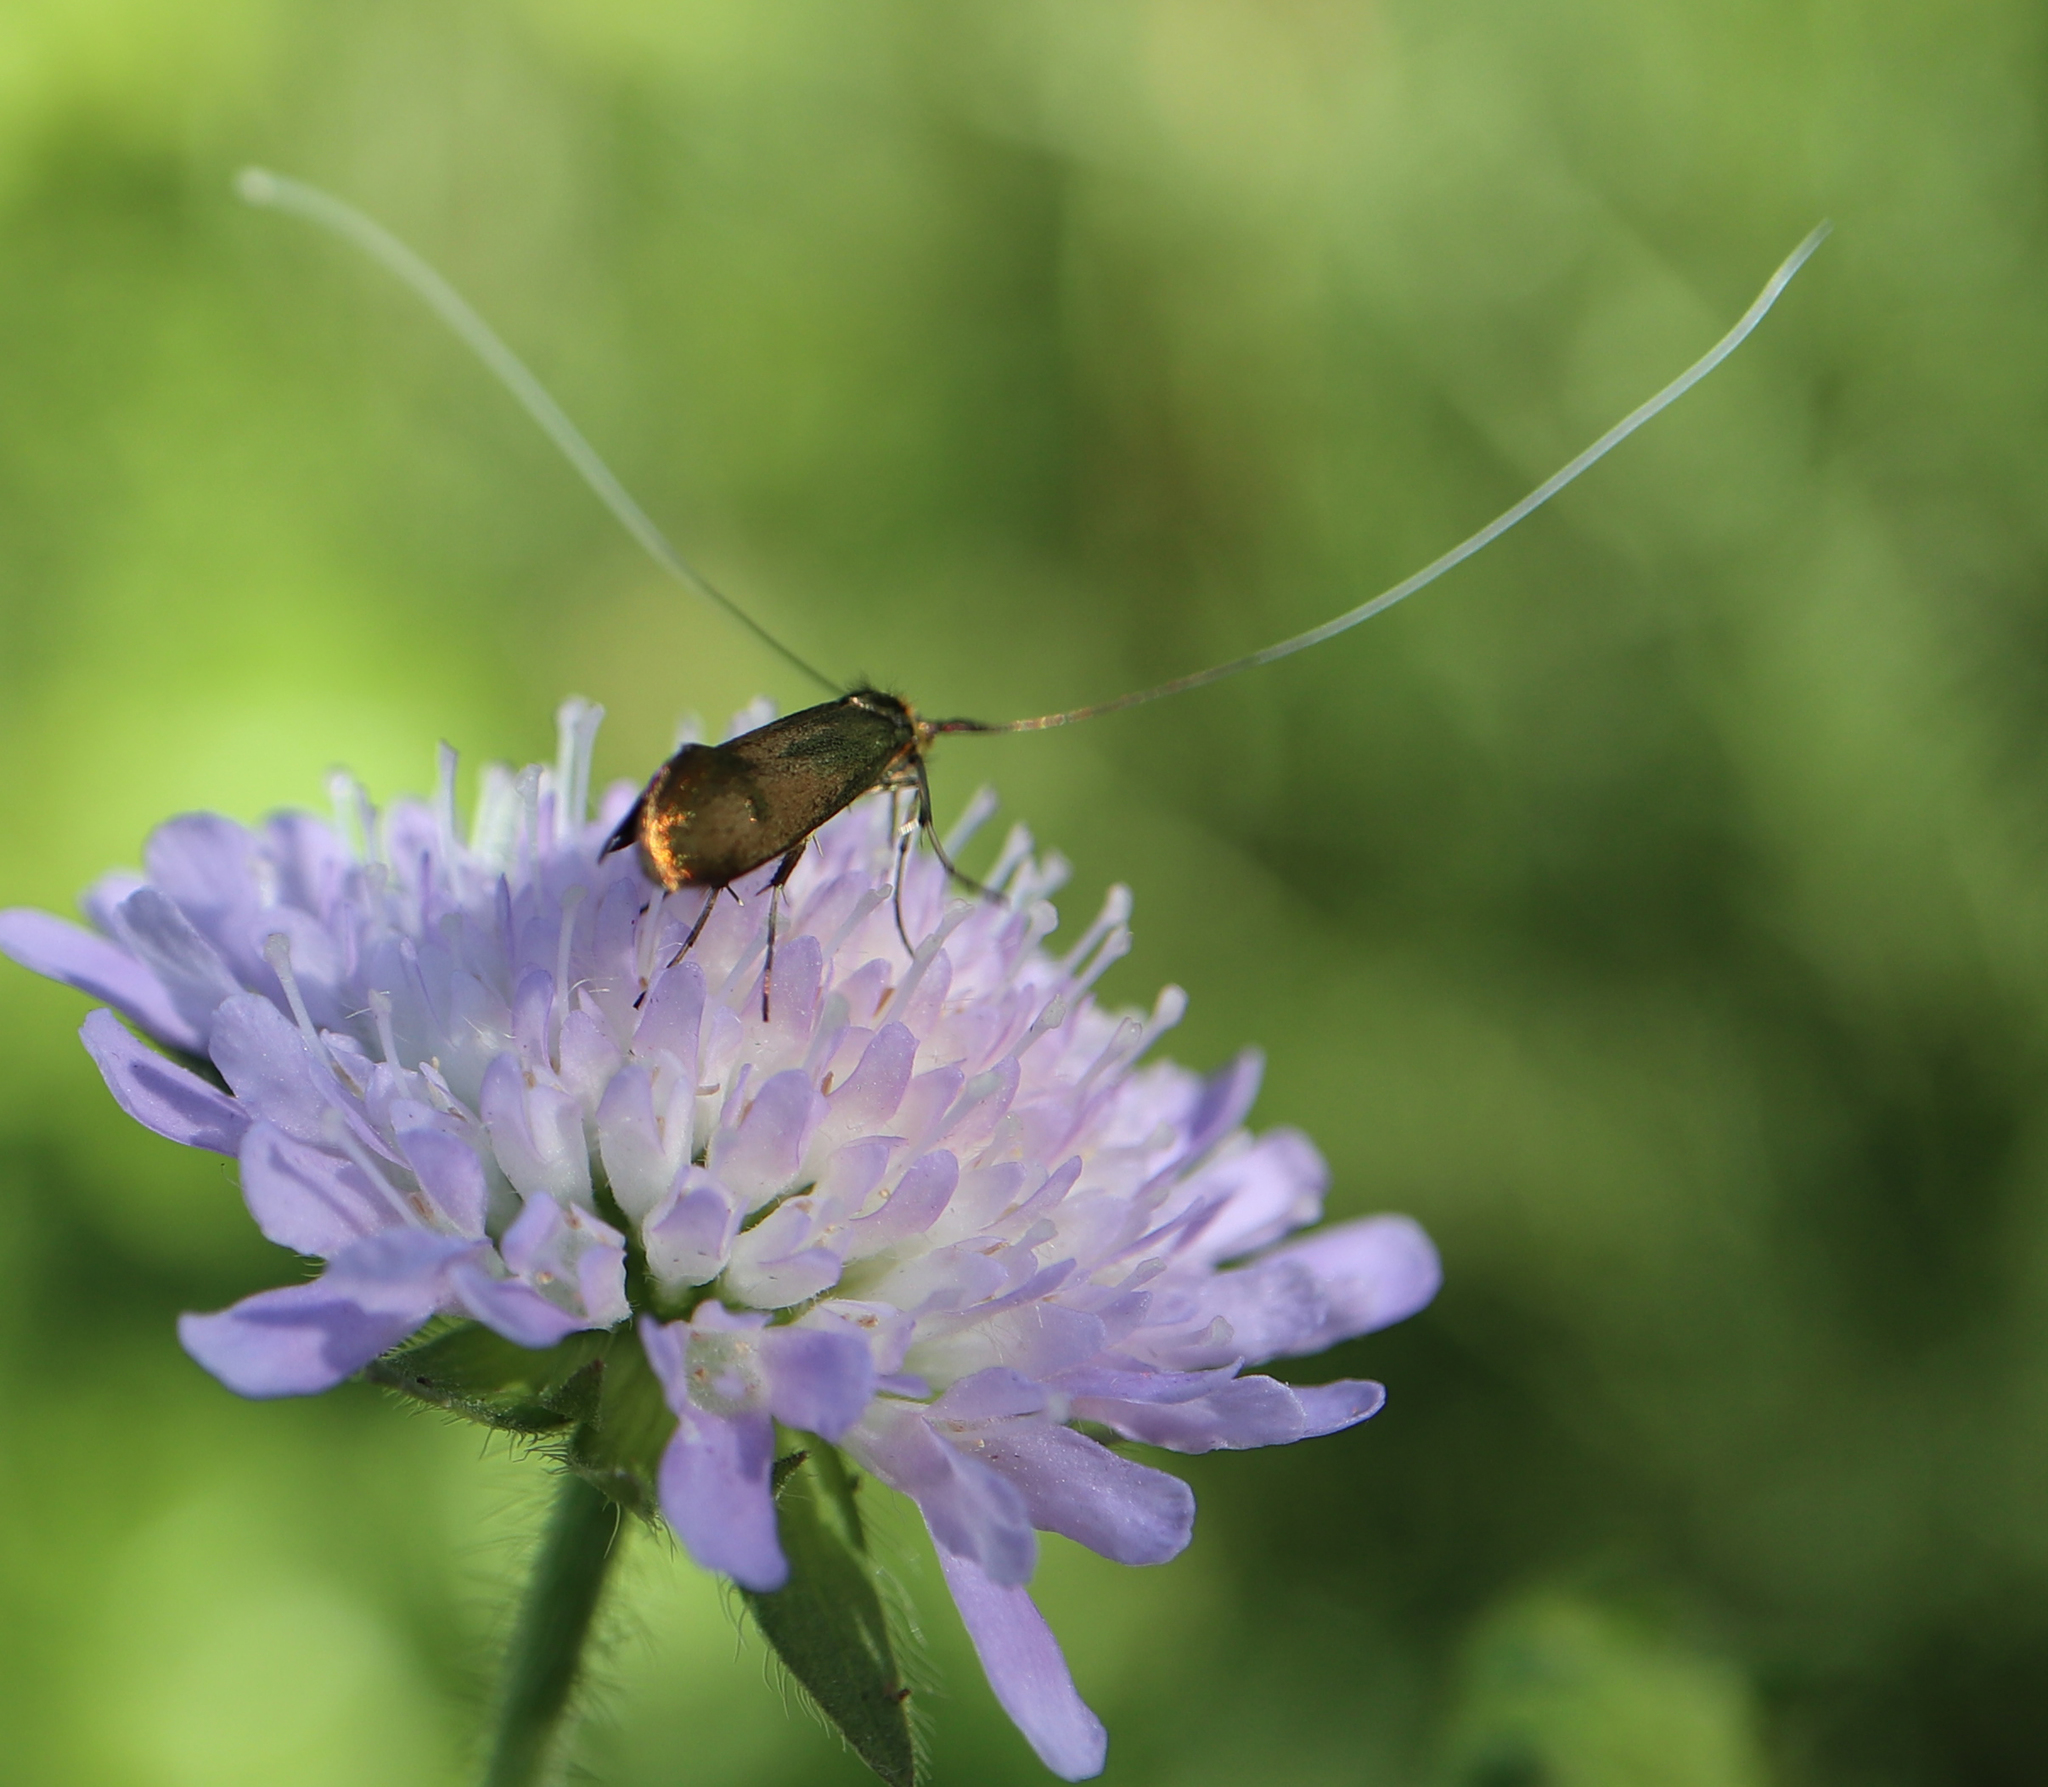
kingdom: Animalia
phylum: Arthropoda
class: Insecta
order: Lepidoptera
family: Adelidae
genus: Nemophora
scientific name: Nemophora metallica
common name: Brassy long-horn
